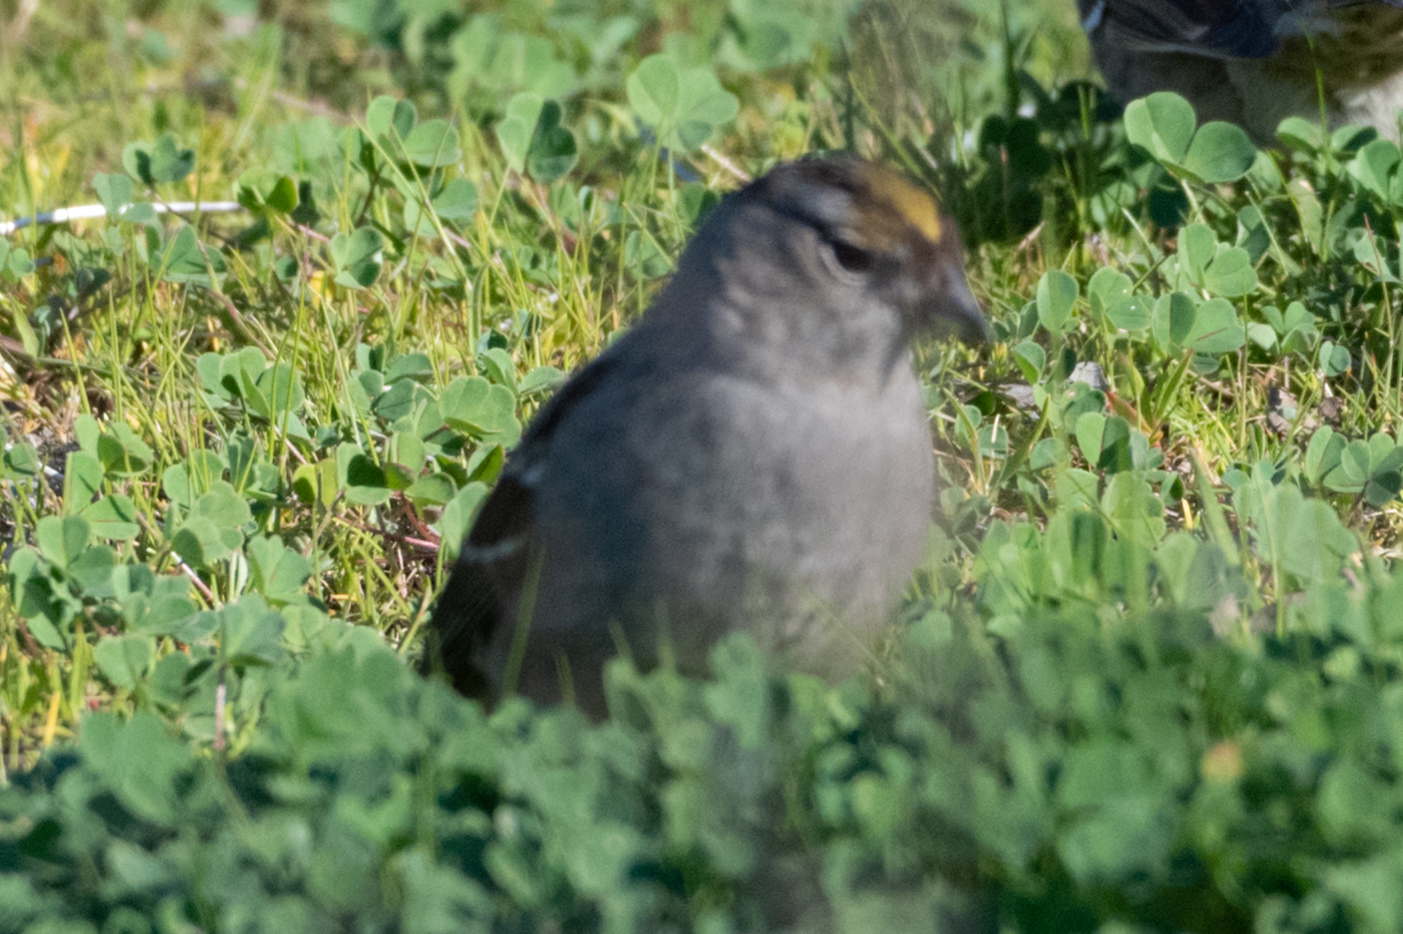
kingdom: Animalia
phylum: Chordata
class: Aves
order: Passeriformes
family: Passerellidae
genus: Zonotrichia
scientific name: Zonotrichia atricapilla
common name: Golden-crowned sparrow
